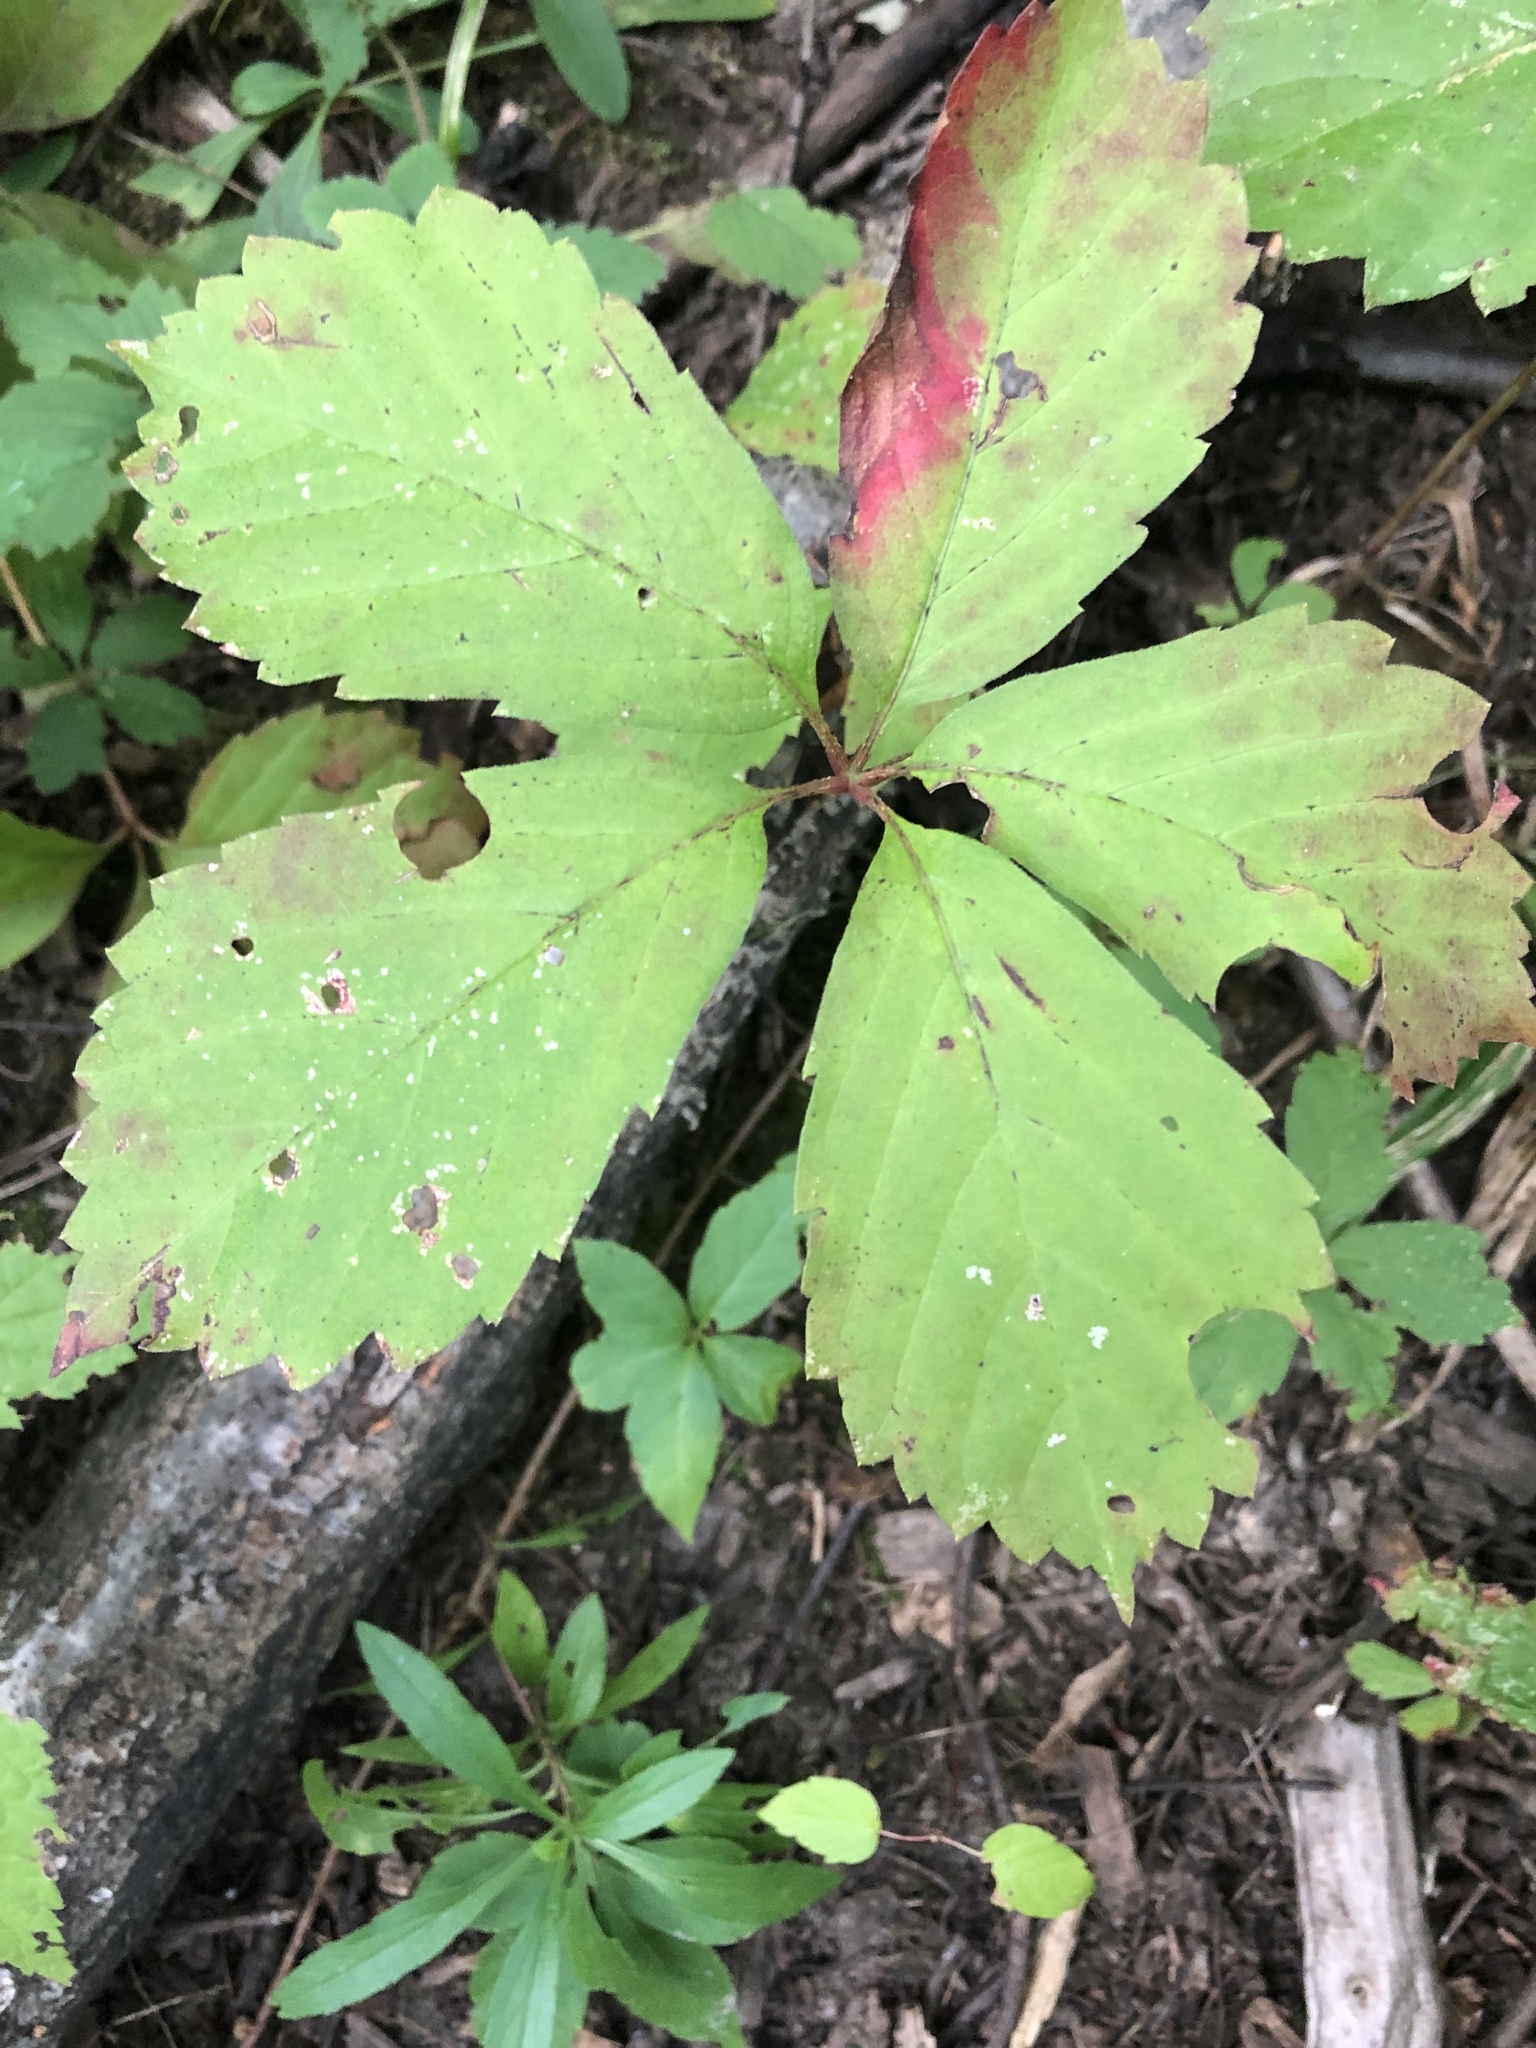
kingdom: Plantae
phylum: Tracheophyta
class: Magnoliopsida
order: Vitales
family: Vitaceae
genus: Parthenocissus
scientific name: Parthenocissus quinquefolia
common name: Virginia-creeper
